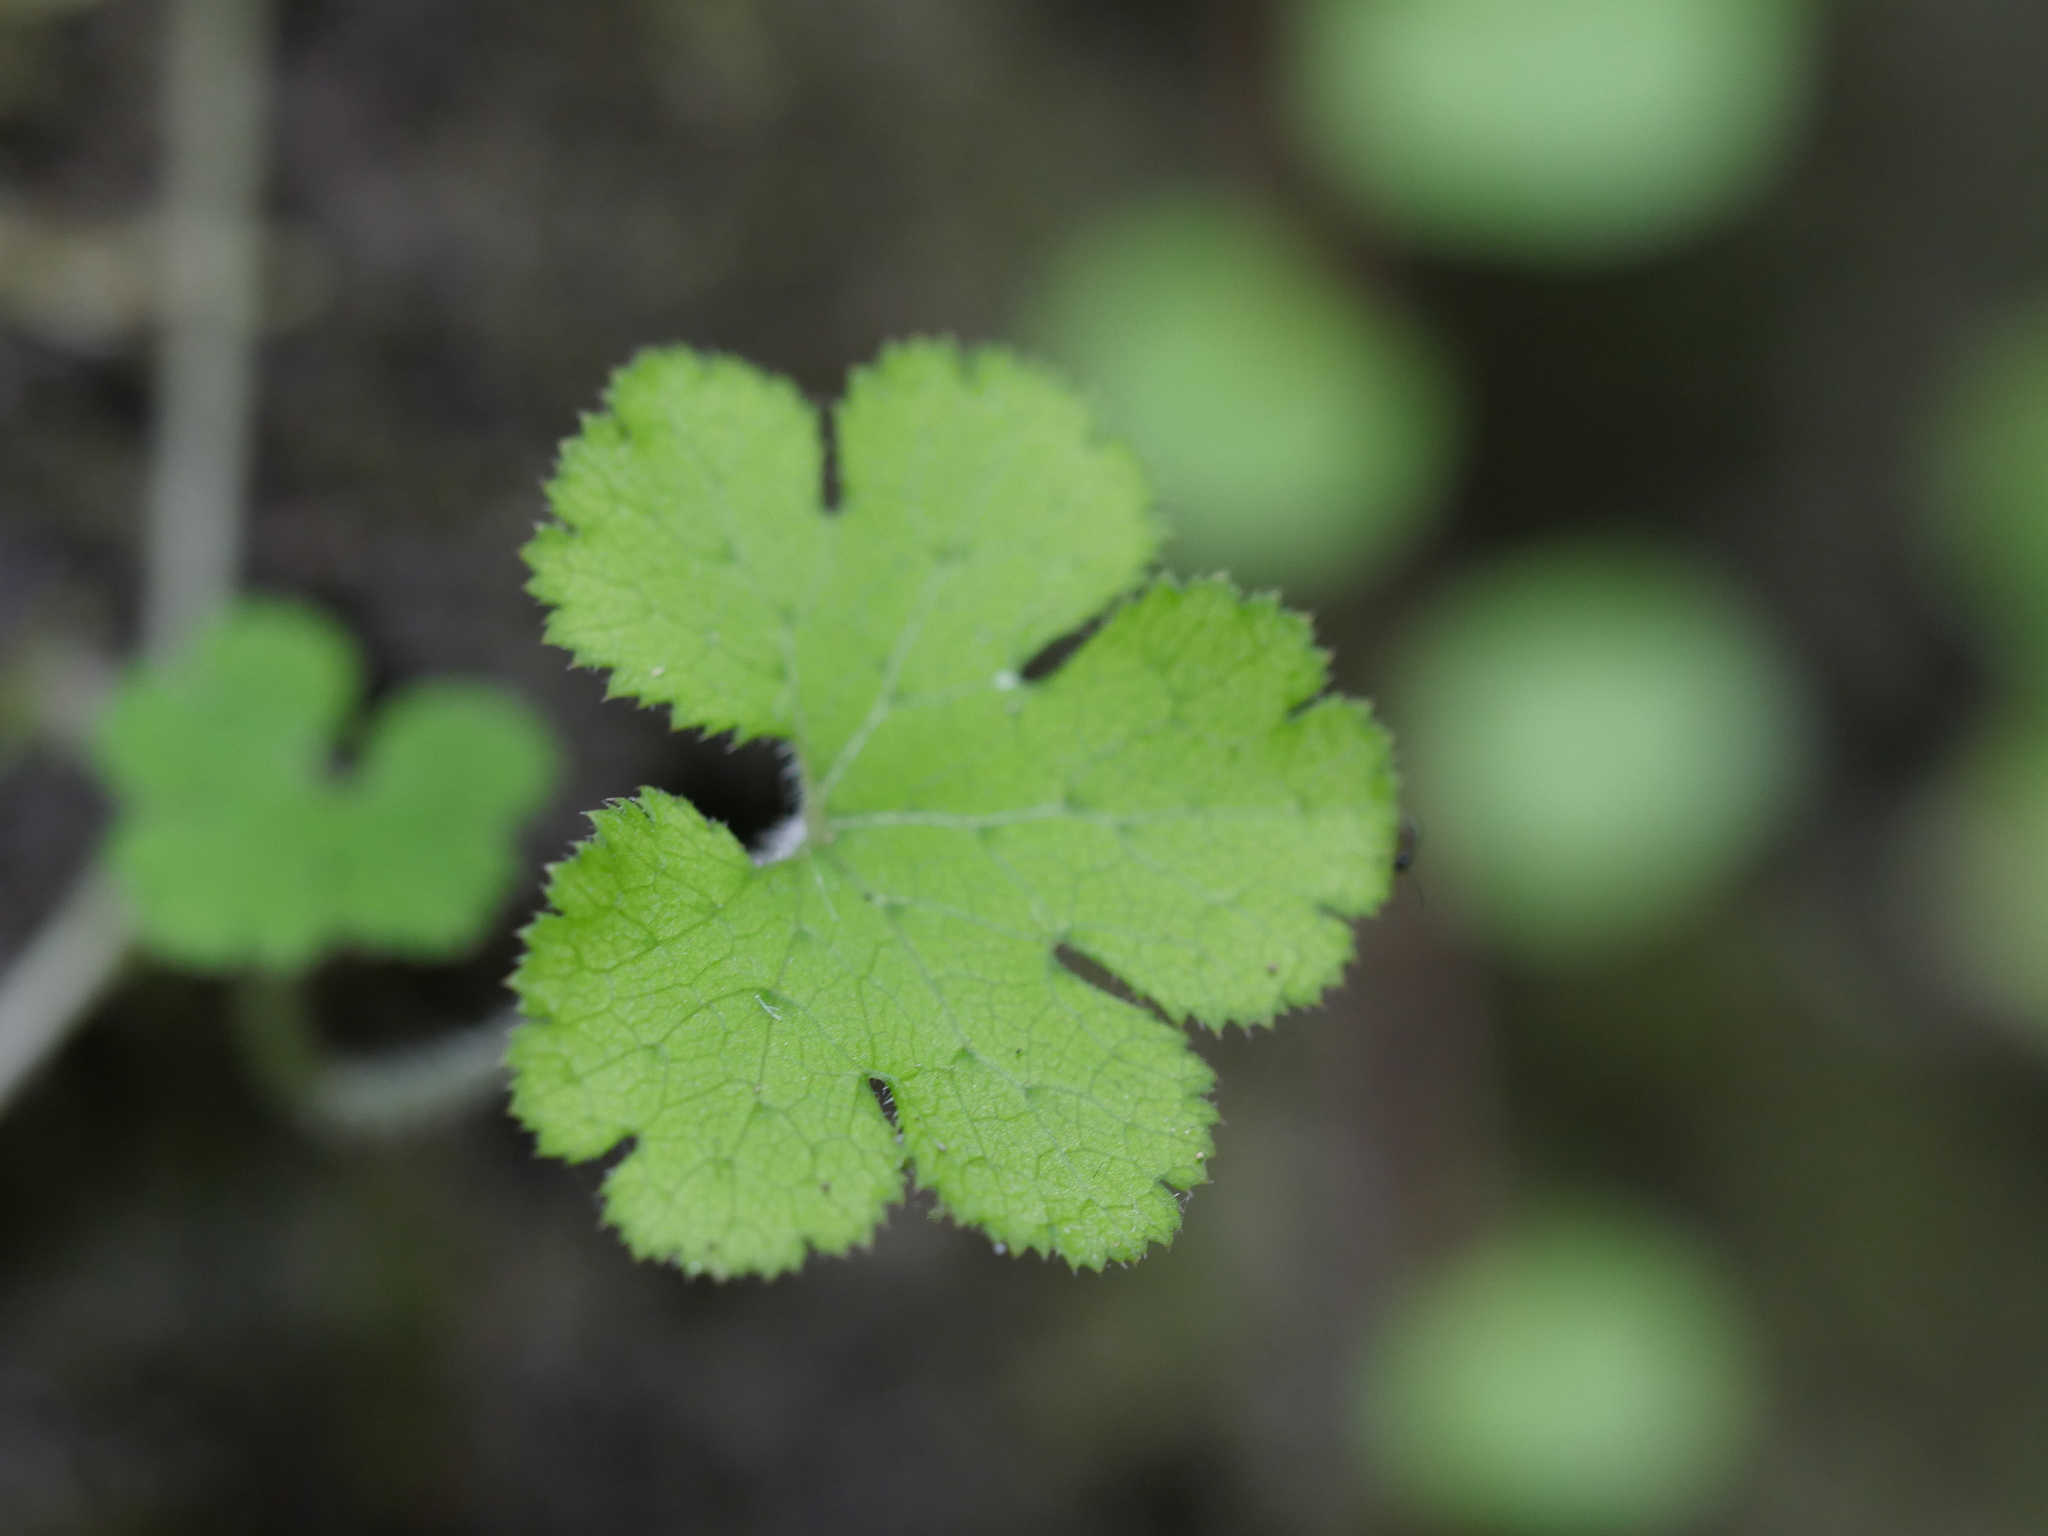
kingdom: Plantae
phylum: Tracheophyta
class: Magnoliopsida
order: Apiales
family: Araliaceae
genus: Hydrocotyle
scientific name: Hydrocotyle elongata
